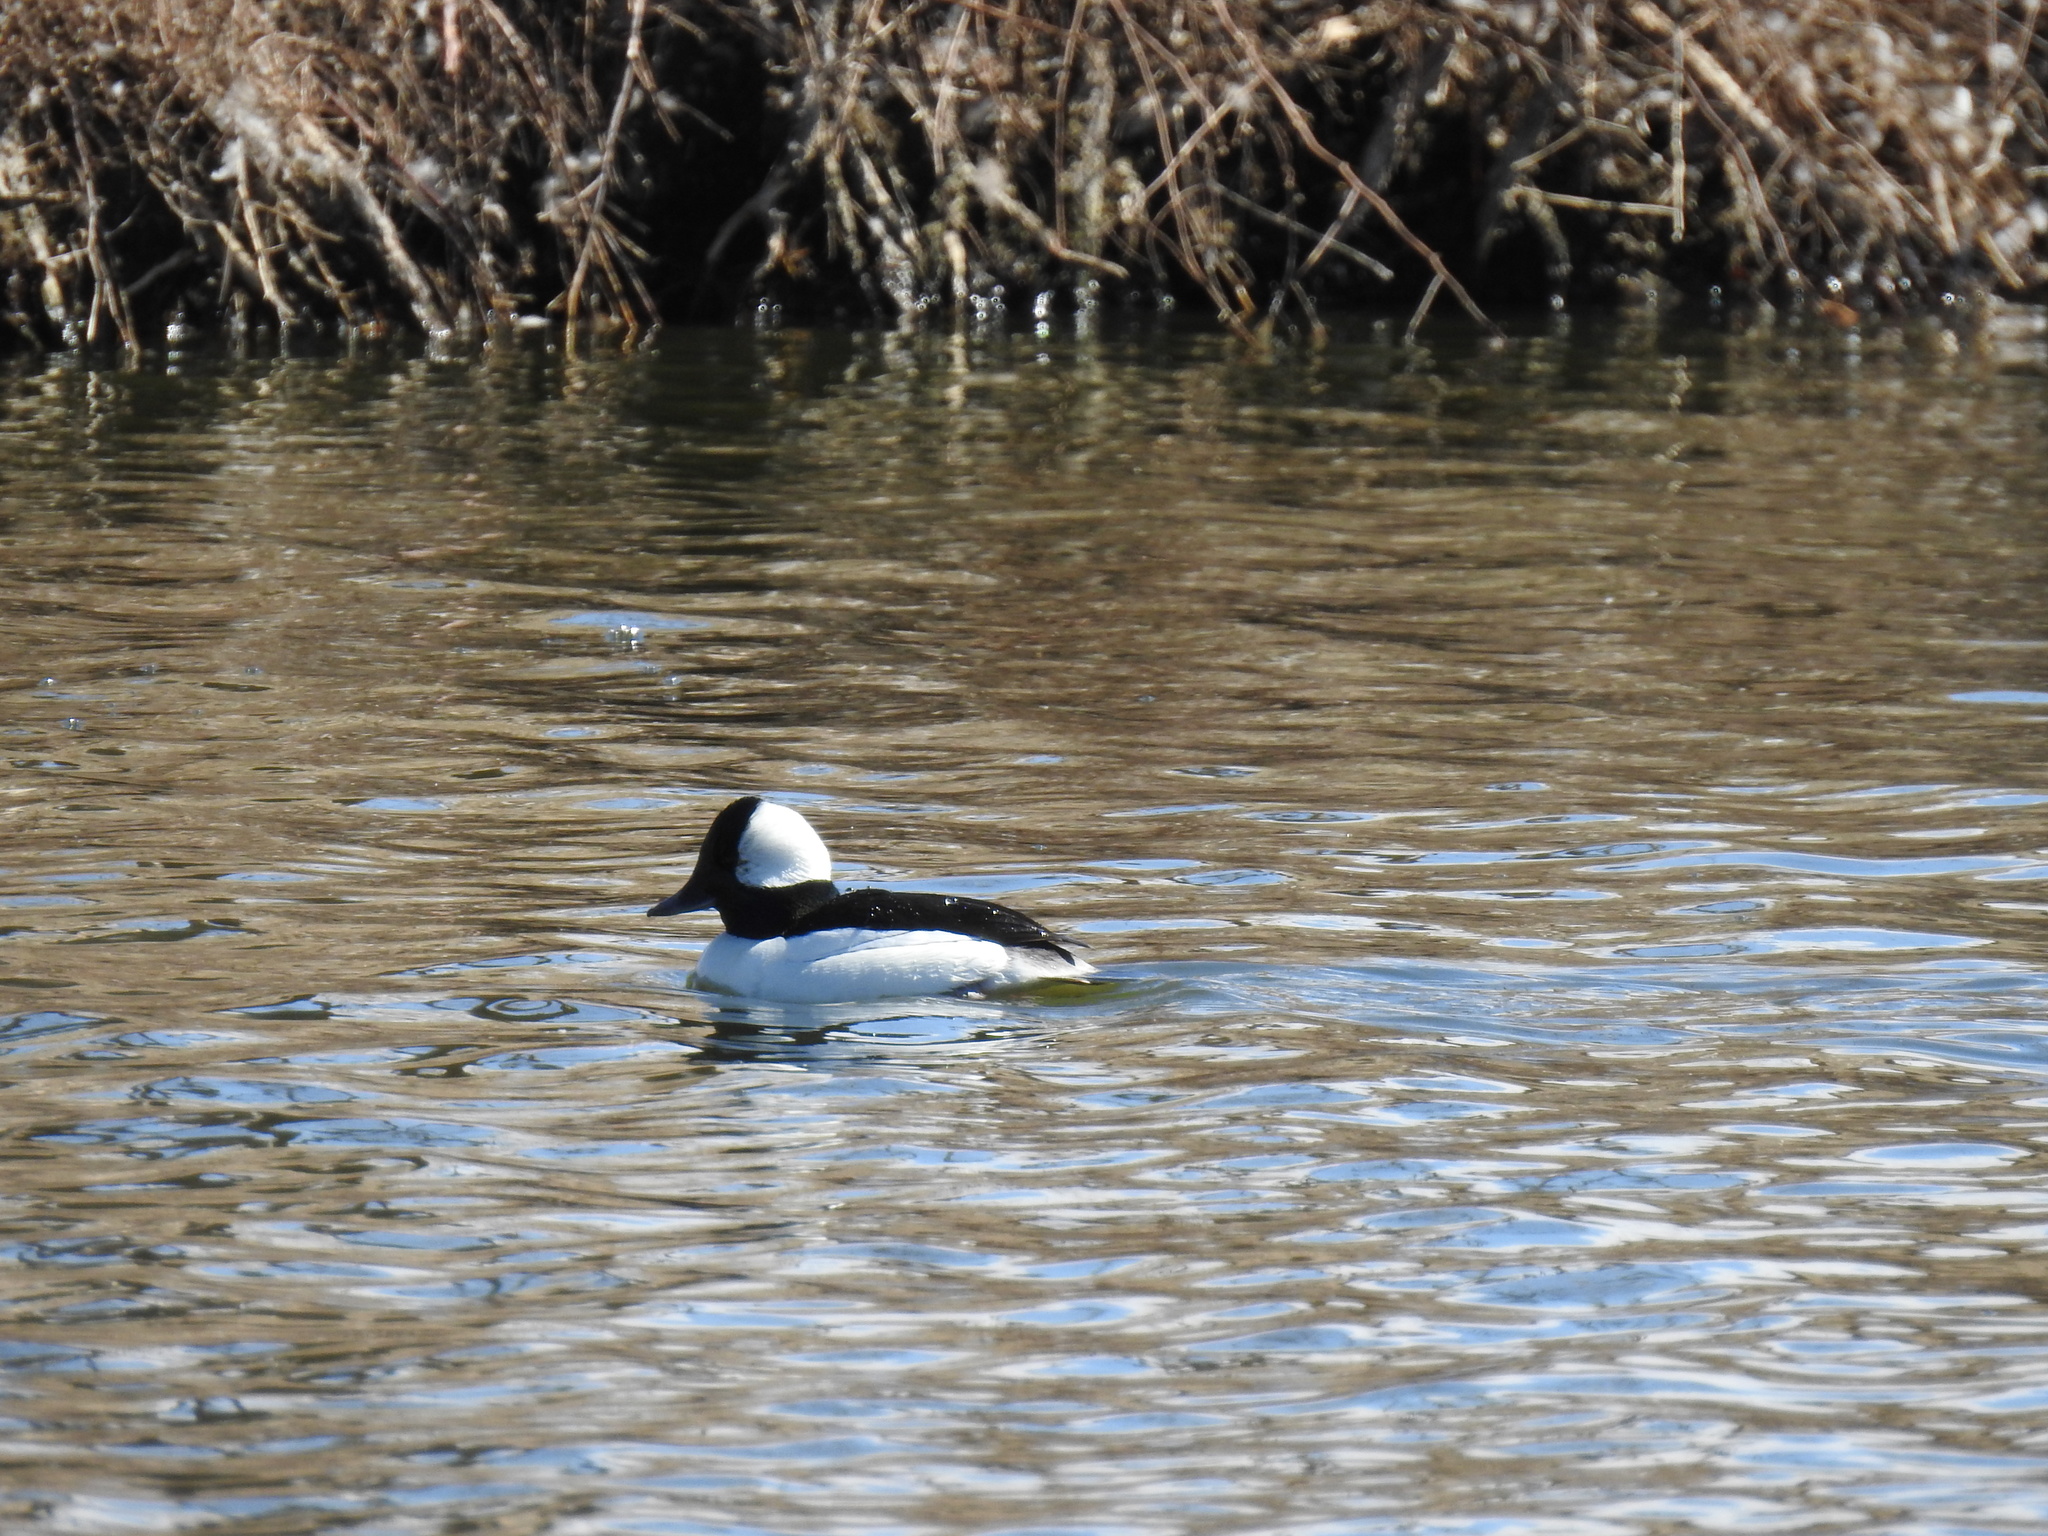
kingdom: Animalia
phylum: Chordata
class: Aves
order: Anseriformes
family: Anatidae
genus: Bucephala
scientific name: Bucephala albeola
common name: Bufflehead
